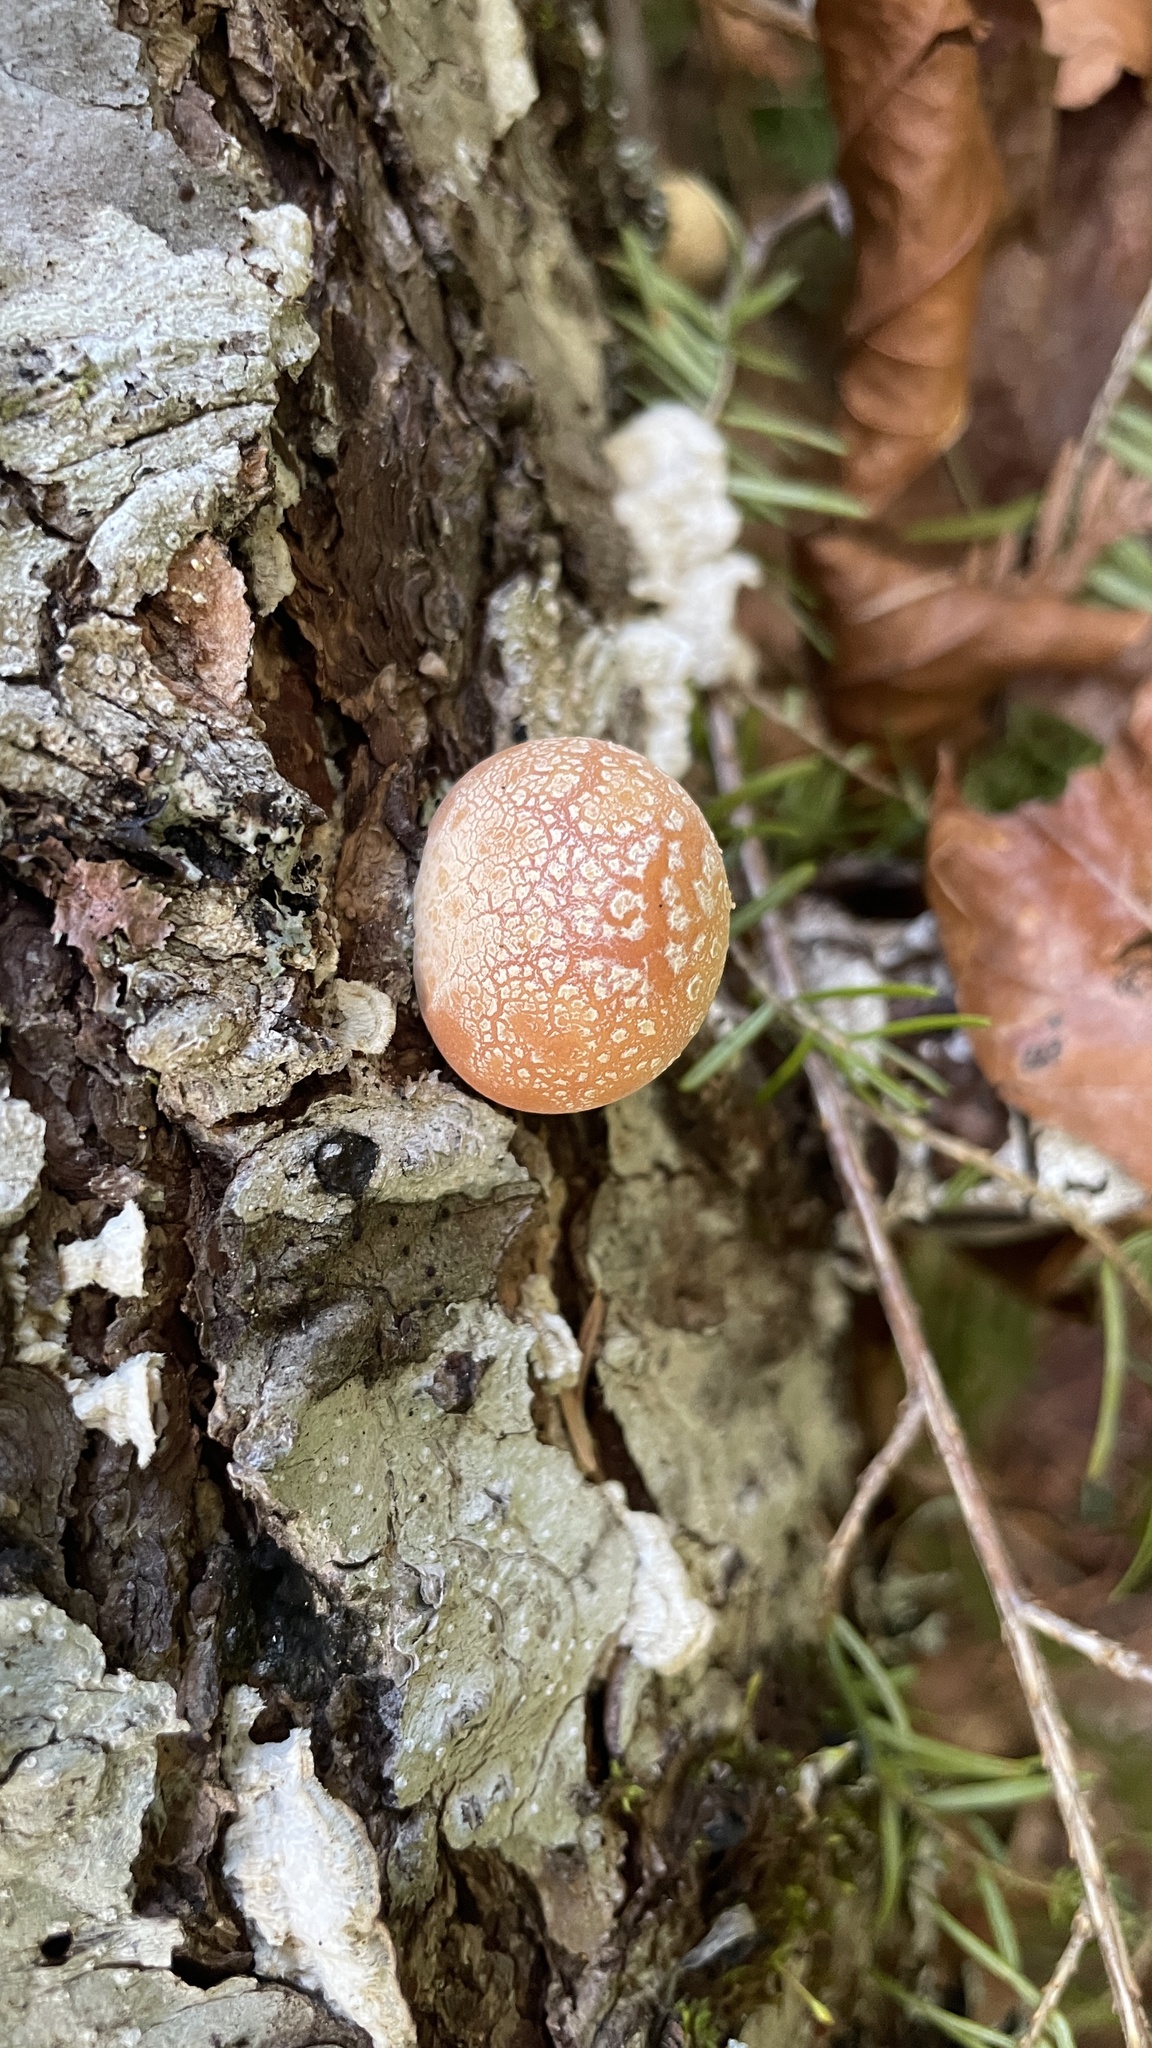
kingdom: Fungi
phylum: Basidiomycota
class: Agaricomycetes
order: Polyporales
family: Polyporaceae
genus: Cryptoporus
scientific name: Cryptoporus volvatus
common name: Veiled polypore
